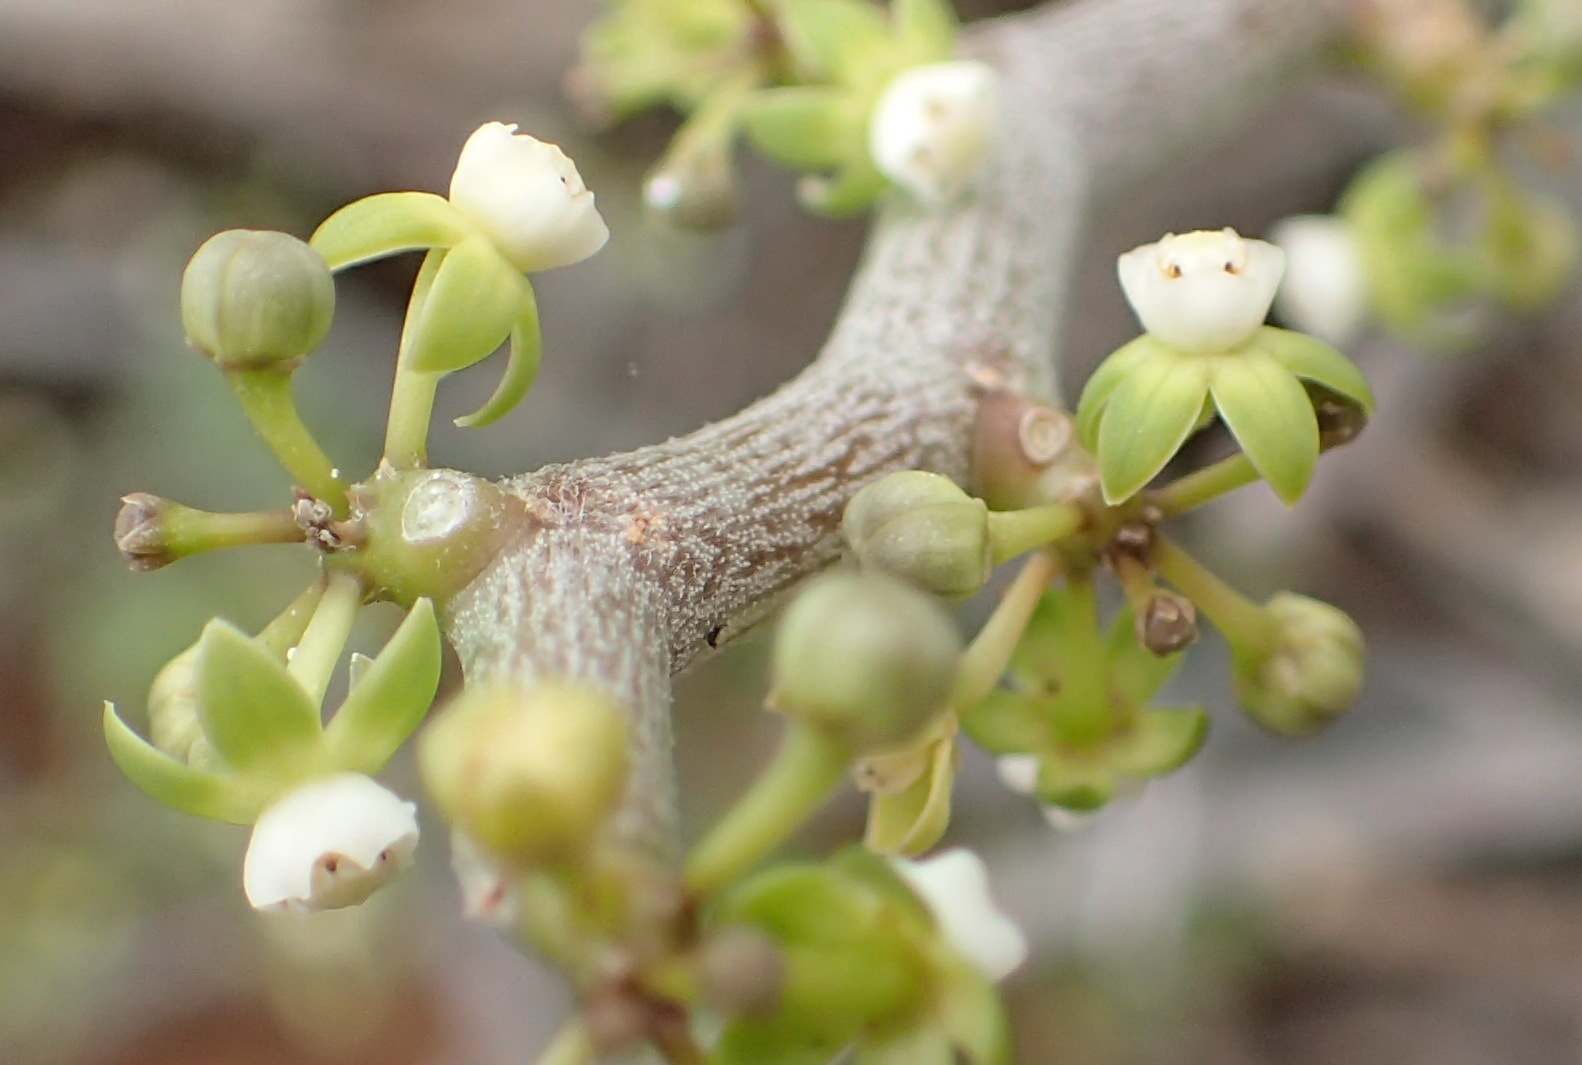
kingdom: Plantae
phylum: Tracheophyta
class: Magnoliopsida
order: Gentianales
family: Apocynaceae
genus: Cynanchum
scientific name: Cynanchum gerrardi
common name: Swallow-wort
